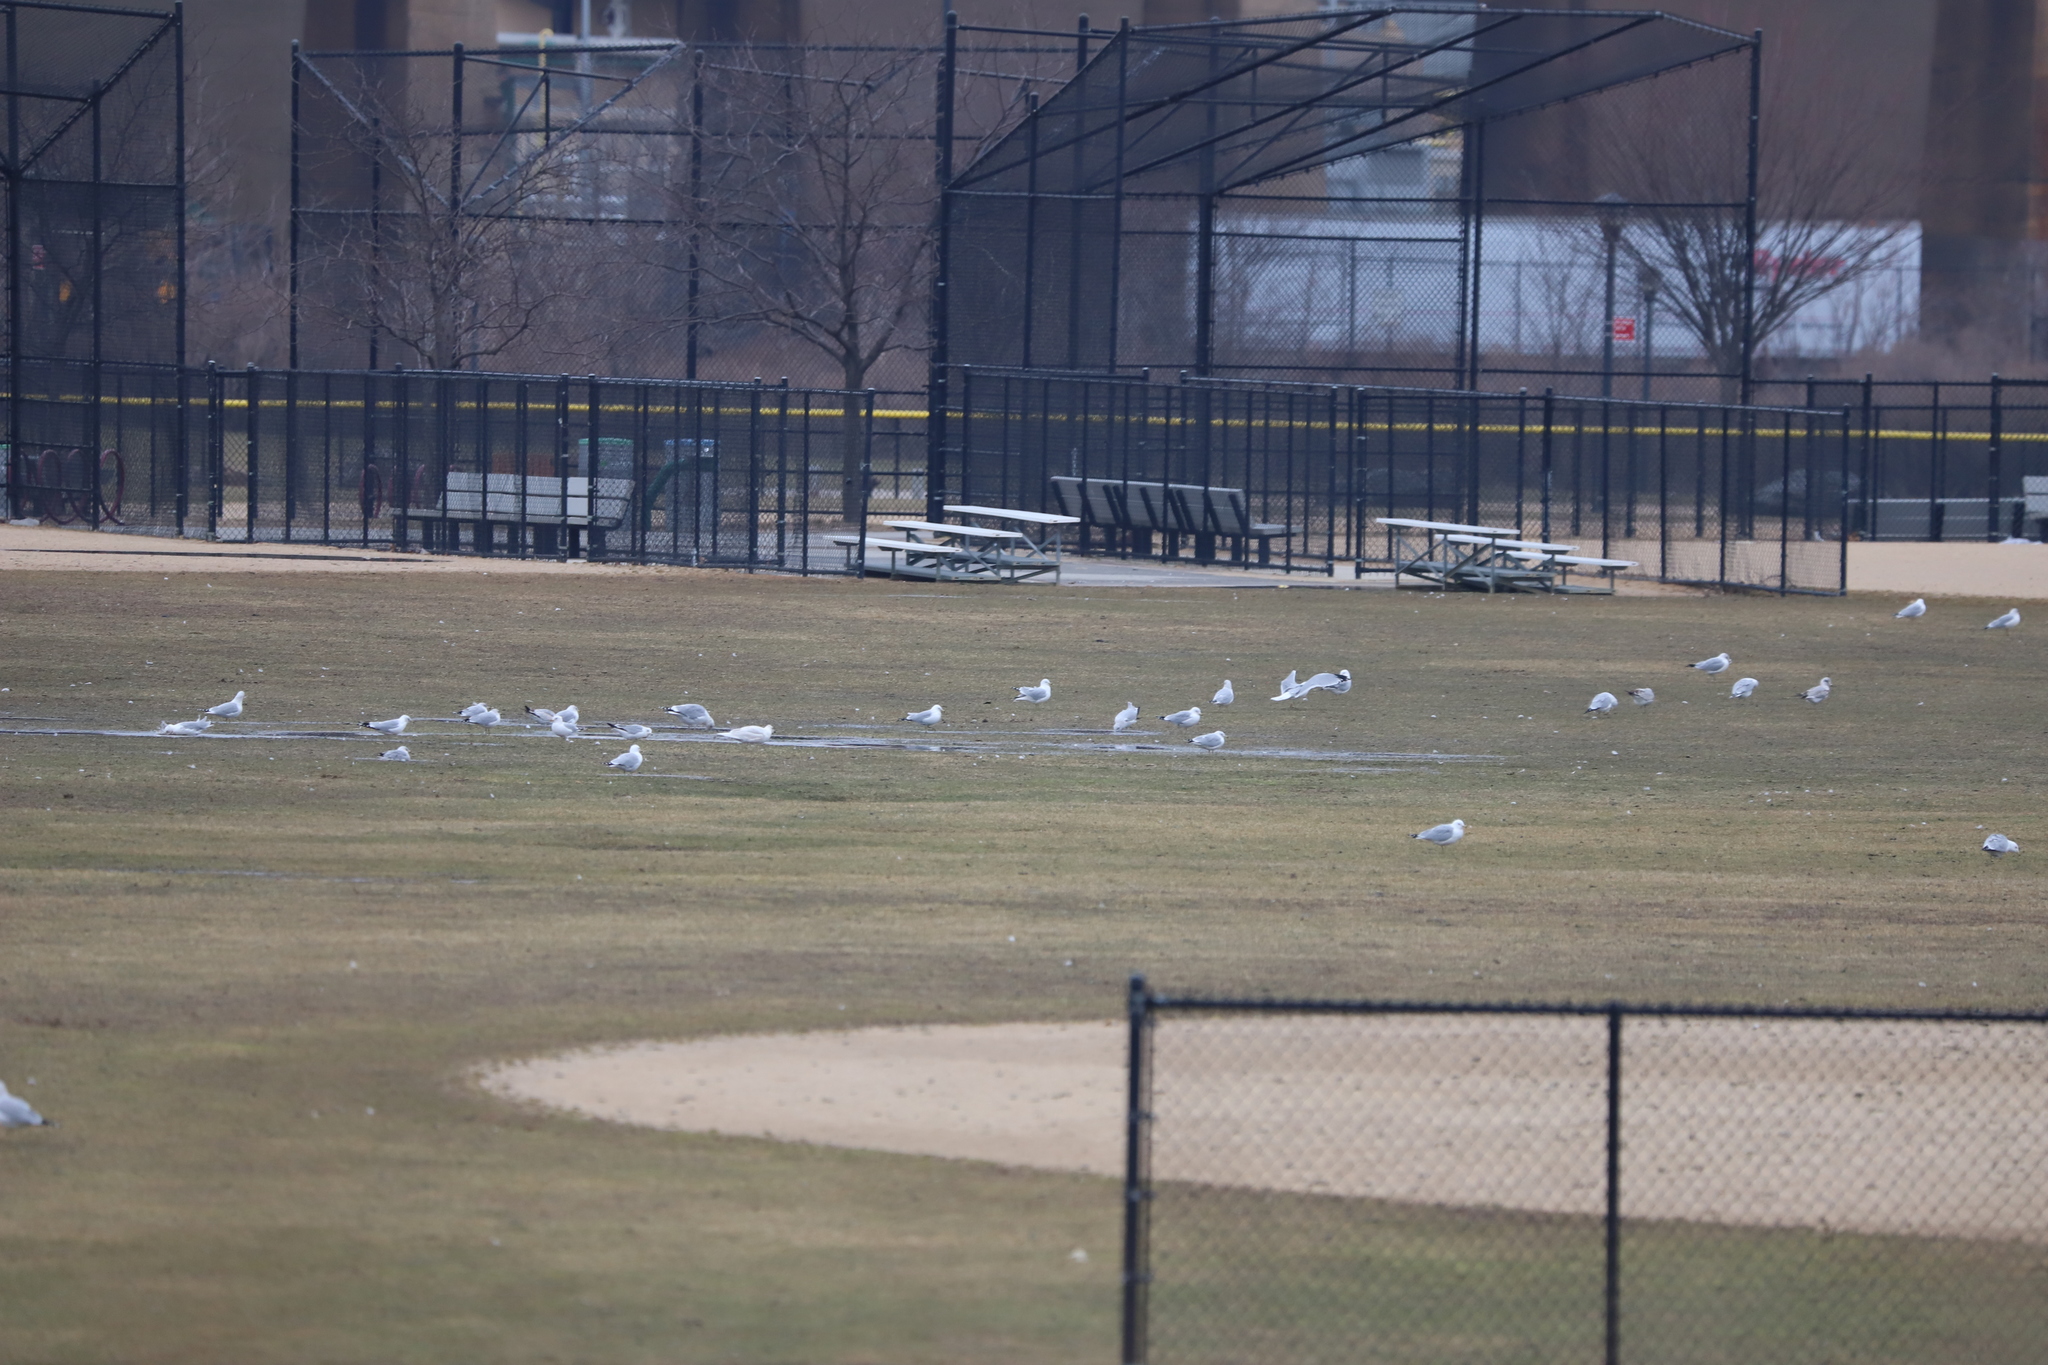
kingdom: Animalia
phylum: Chordata
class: Aves
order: Charadriiformes
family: Laridae
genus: Larus
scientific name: Larus delawarensis
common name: Ring-billed gull
